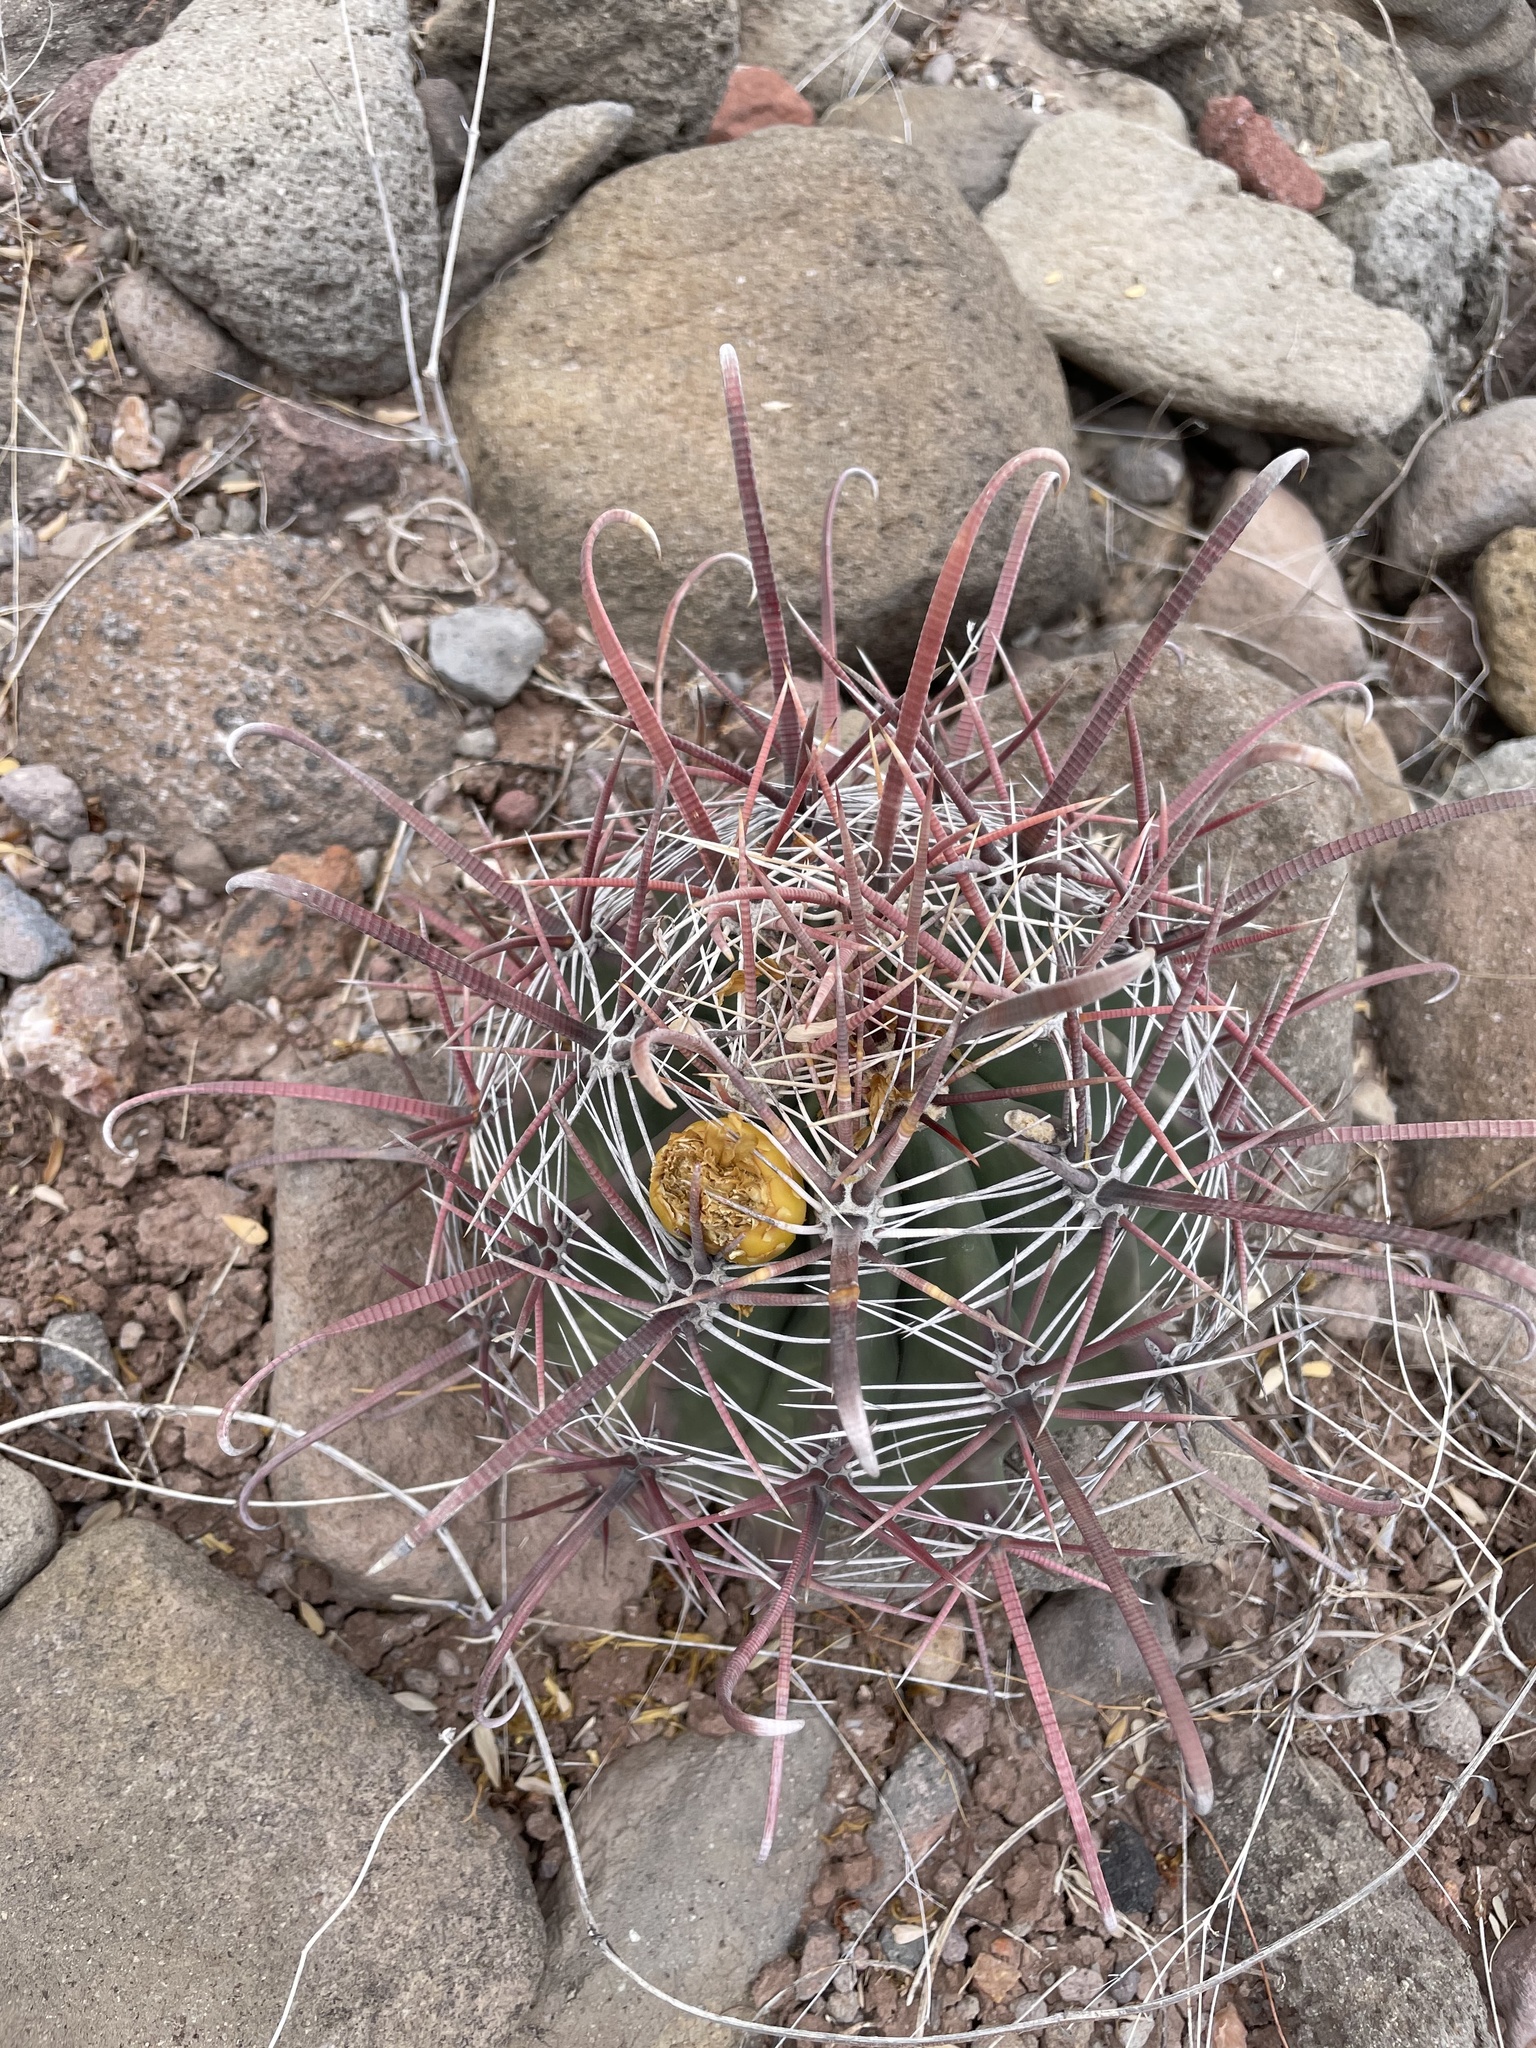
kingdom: Plantae
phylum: Tracheophyta
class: Magnoliopsida
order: Caryophyllales
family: Cactaceae
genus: Ferocactus
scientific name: Ferocactus peninsulae
